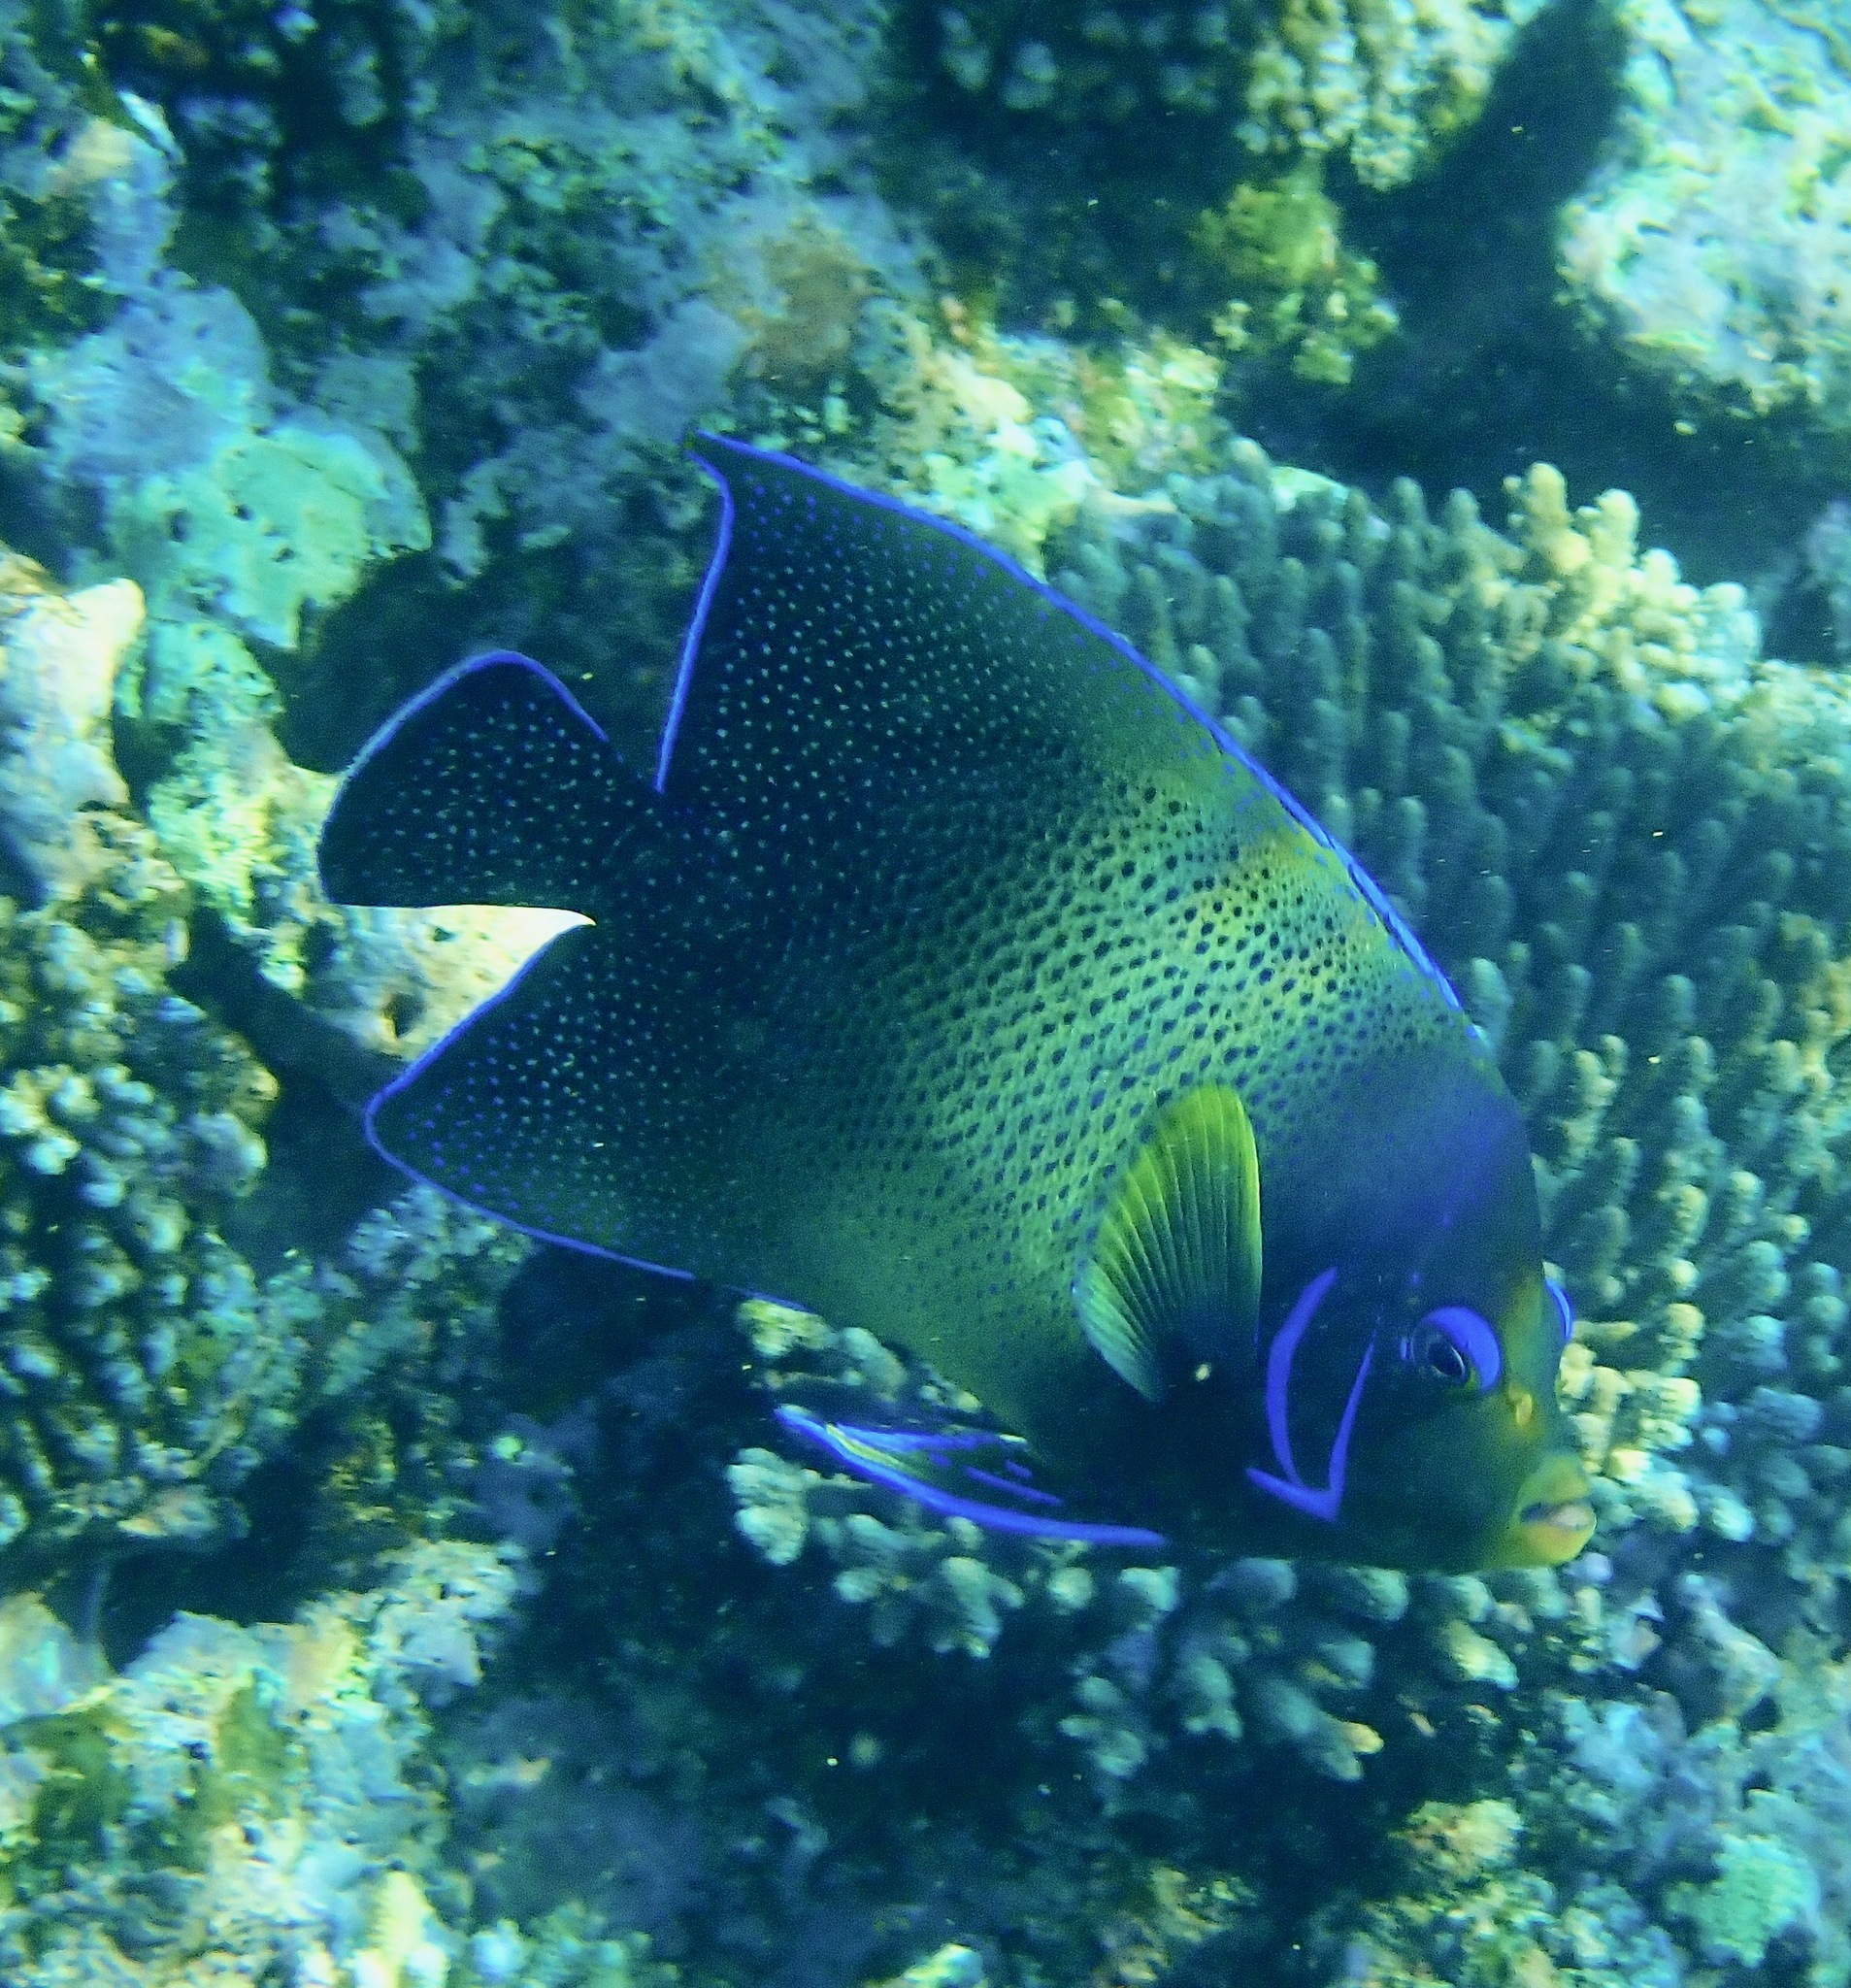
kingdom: Animalia
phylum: Chordata
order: Perciformes
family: Pomacanthidae
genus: Pomacanthus
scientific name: Pomacanthus semicirculatus
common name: Semicircle angelfish
